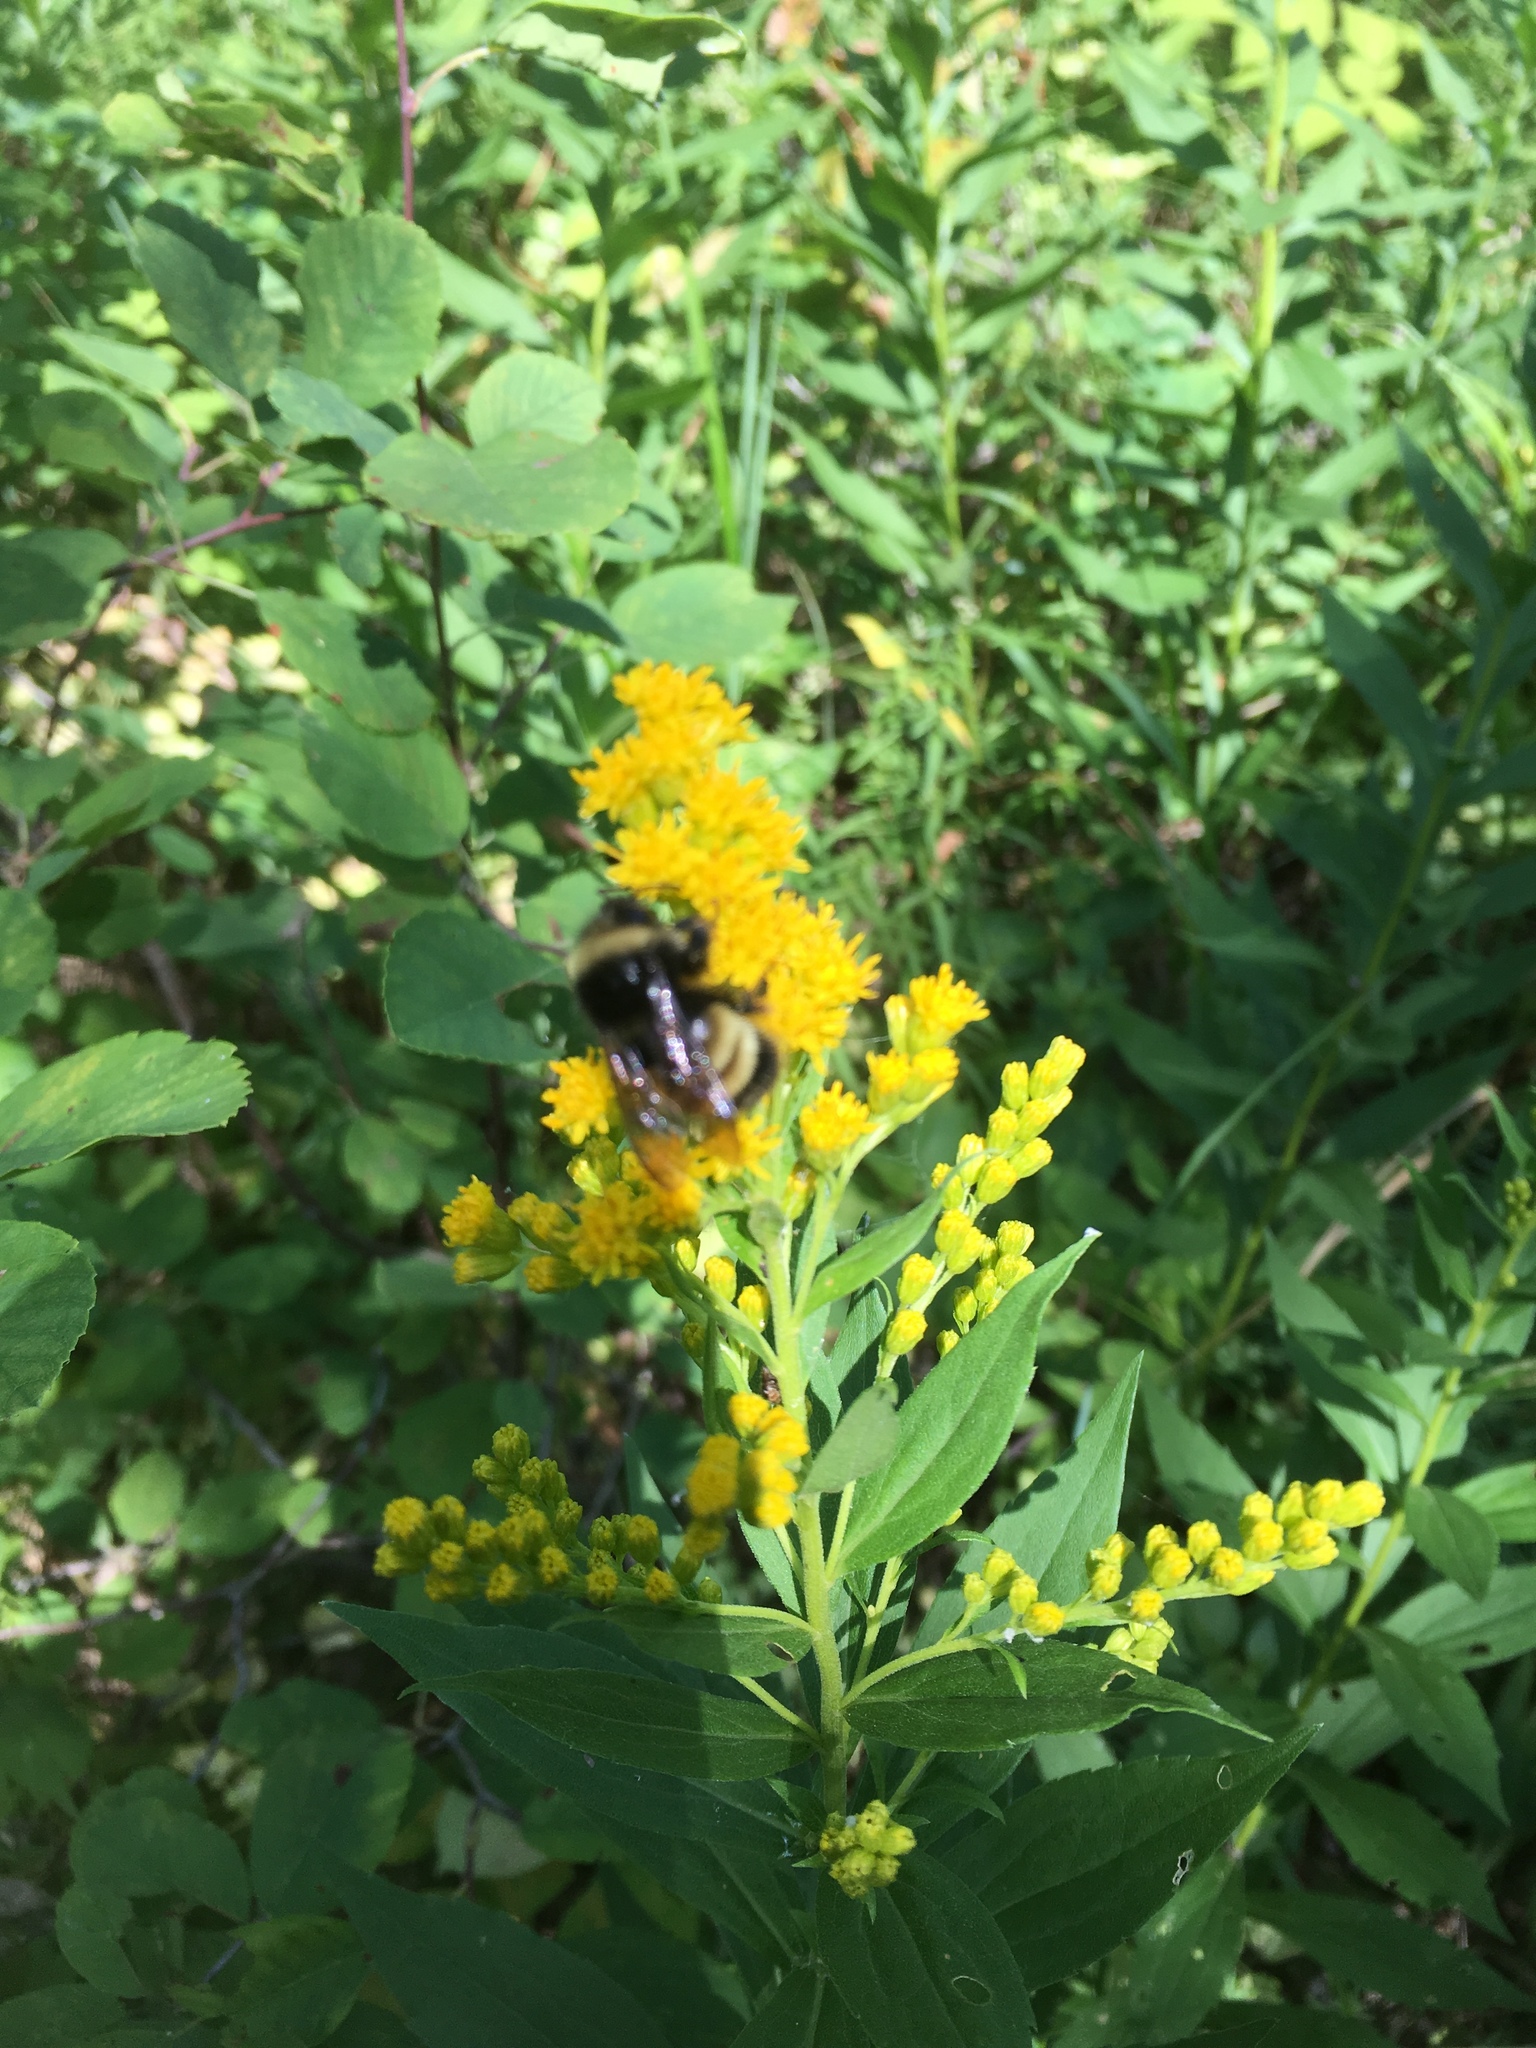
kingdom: Animalia
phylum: Arthropoda
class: Insecta
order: Hymenoptera
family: Apidae
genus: Bombus
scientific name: Bombus terricola
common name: Yellow-banded bumble bee
